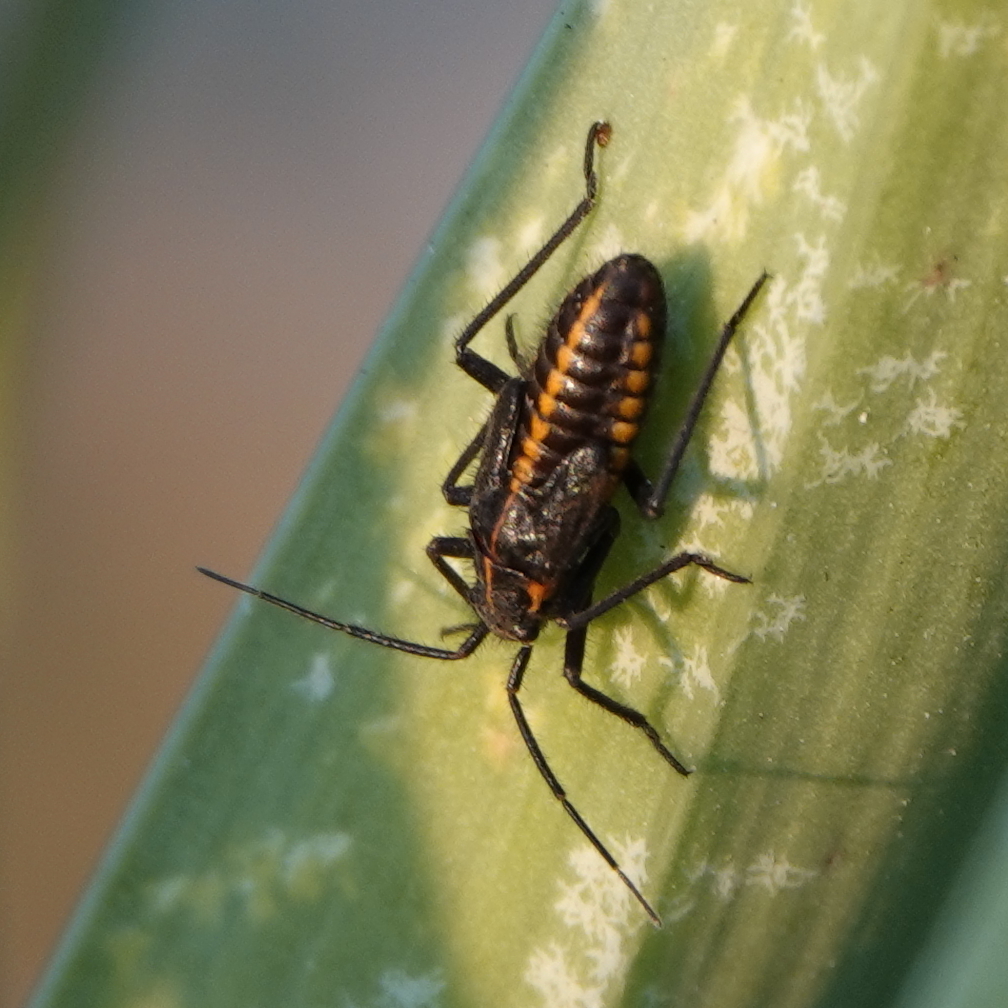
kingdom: Animalia
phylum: Arthropoda
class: Insecta
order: Hemiptera
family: Miridae
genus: Horistus
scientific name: Horistus turcomanus
